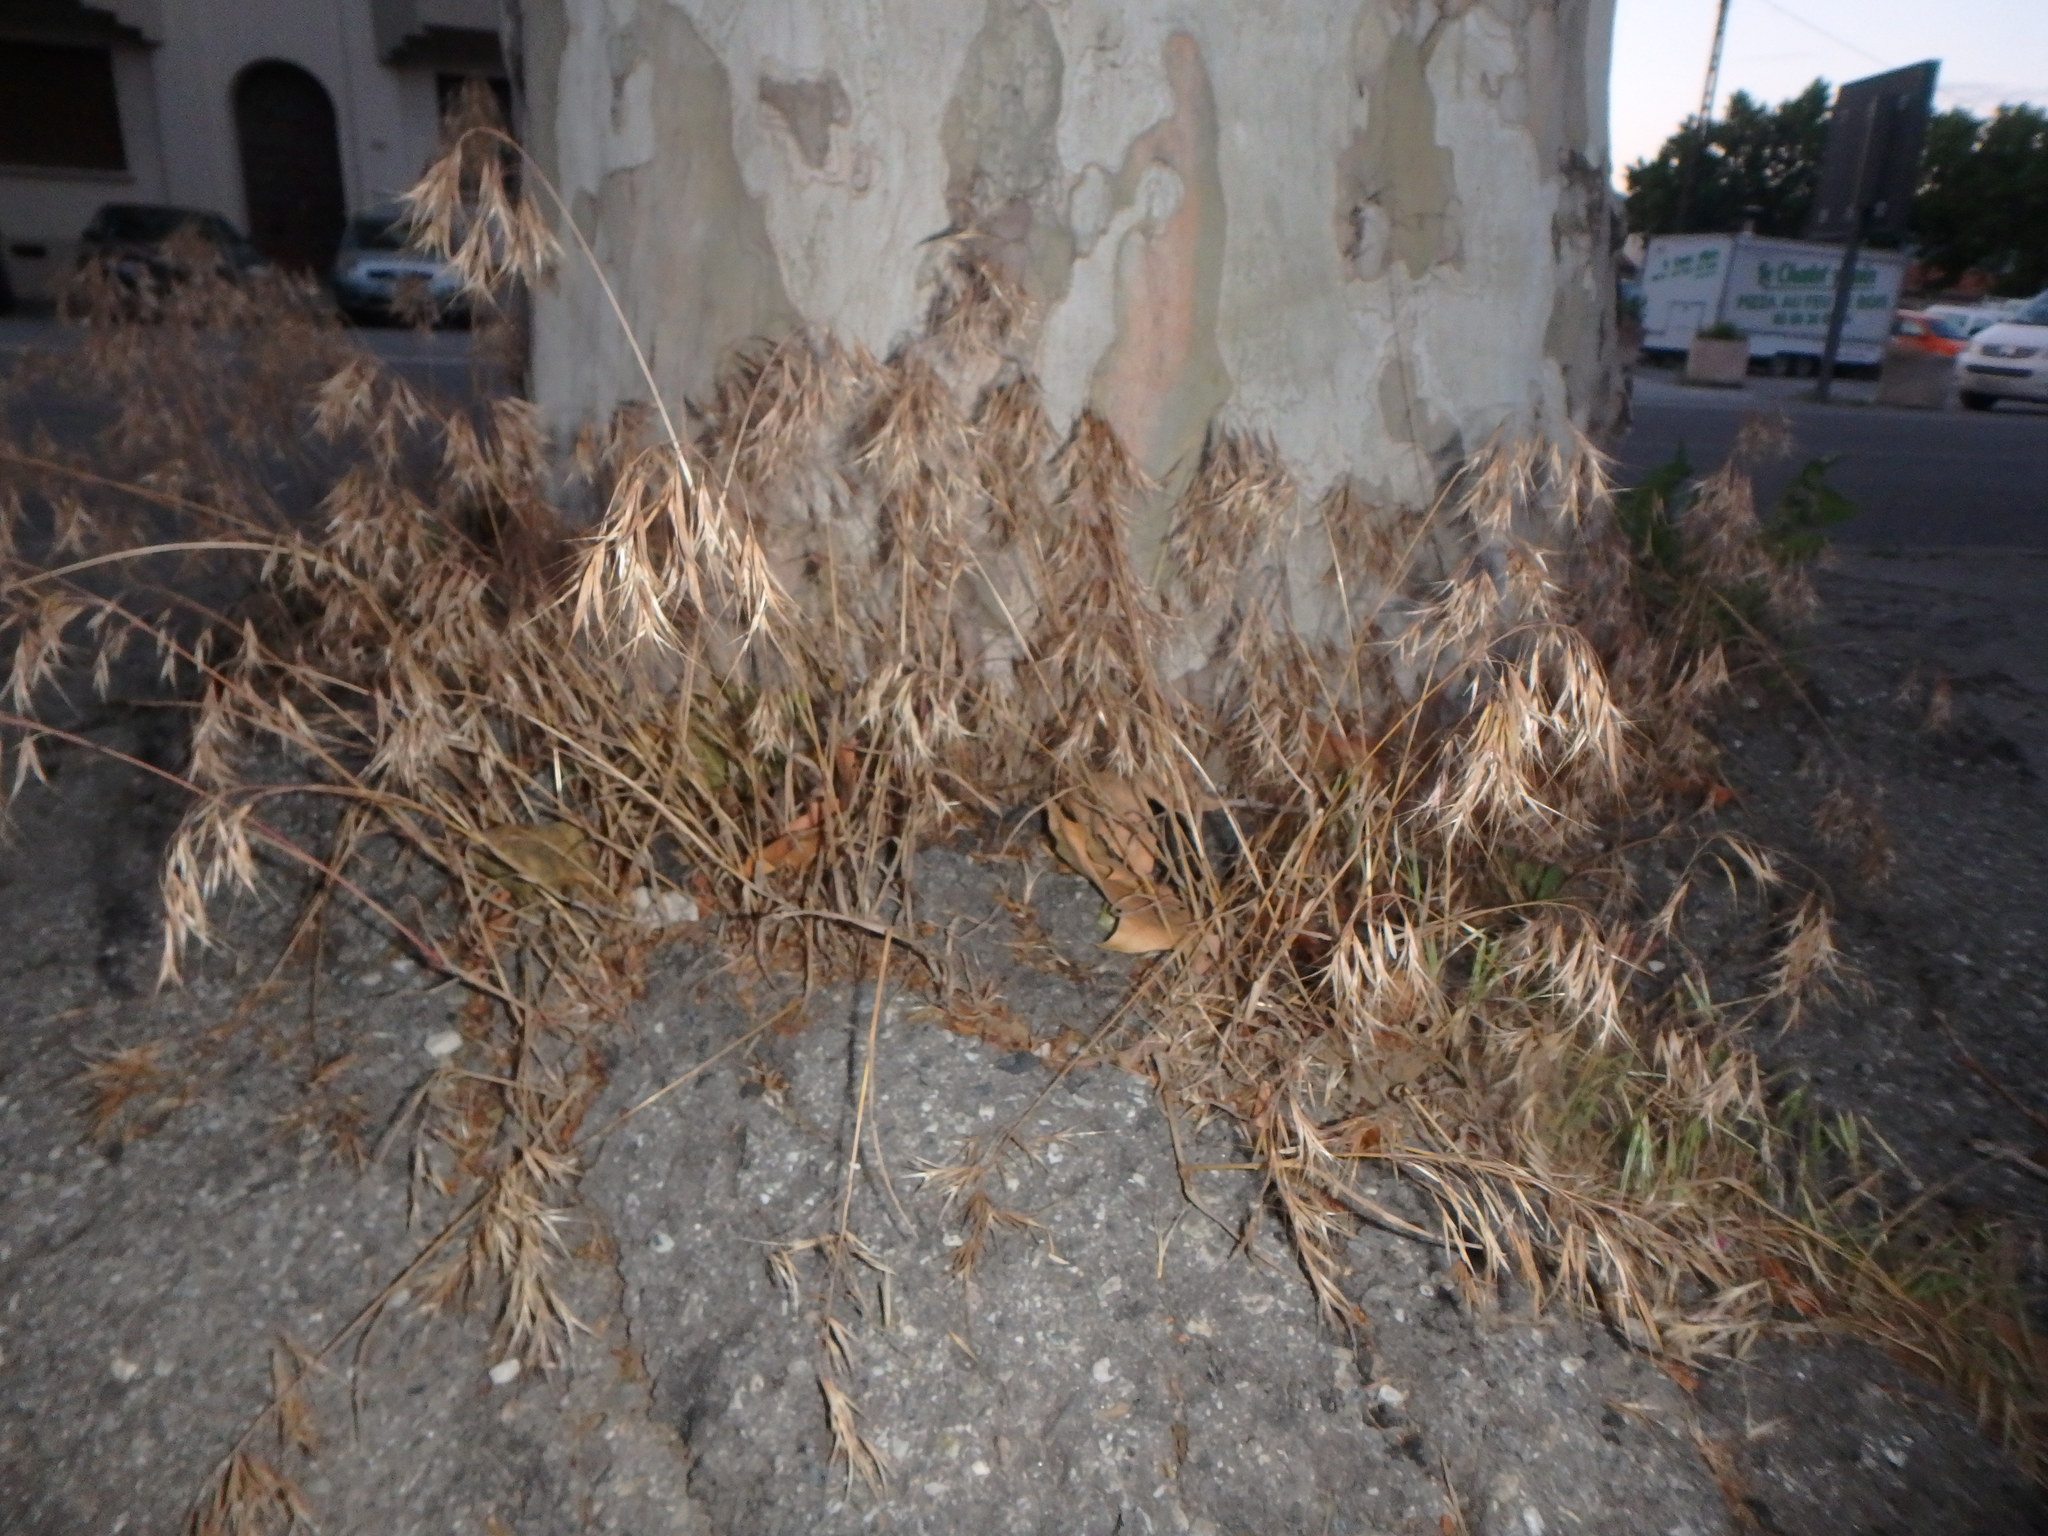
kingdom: Plantae
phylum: Tracheophyta
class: Liliopsida
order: Poales
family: Poaceae
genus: Bromus
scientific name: Bromus tectorum
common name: Cheatgrass
